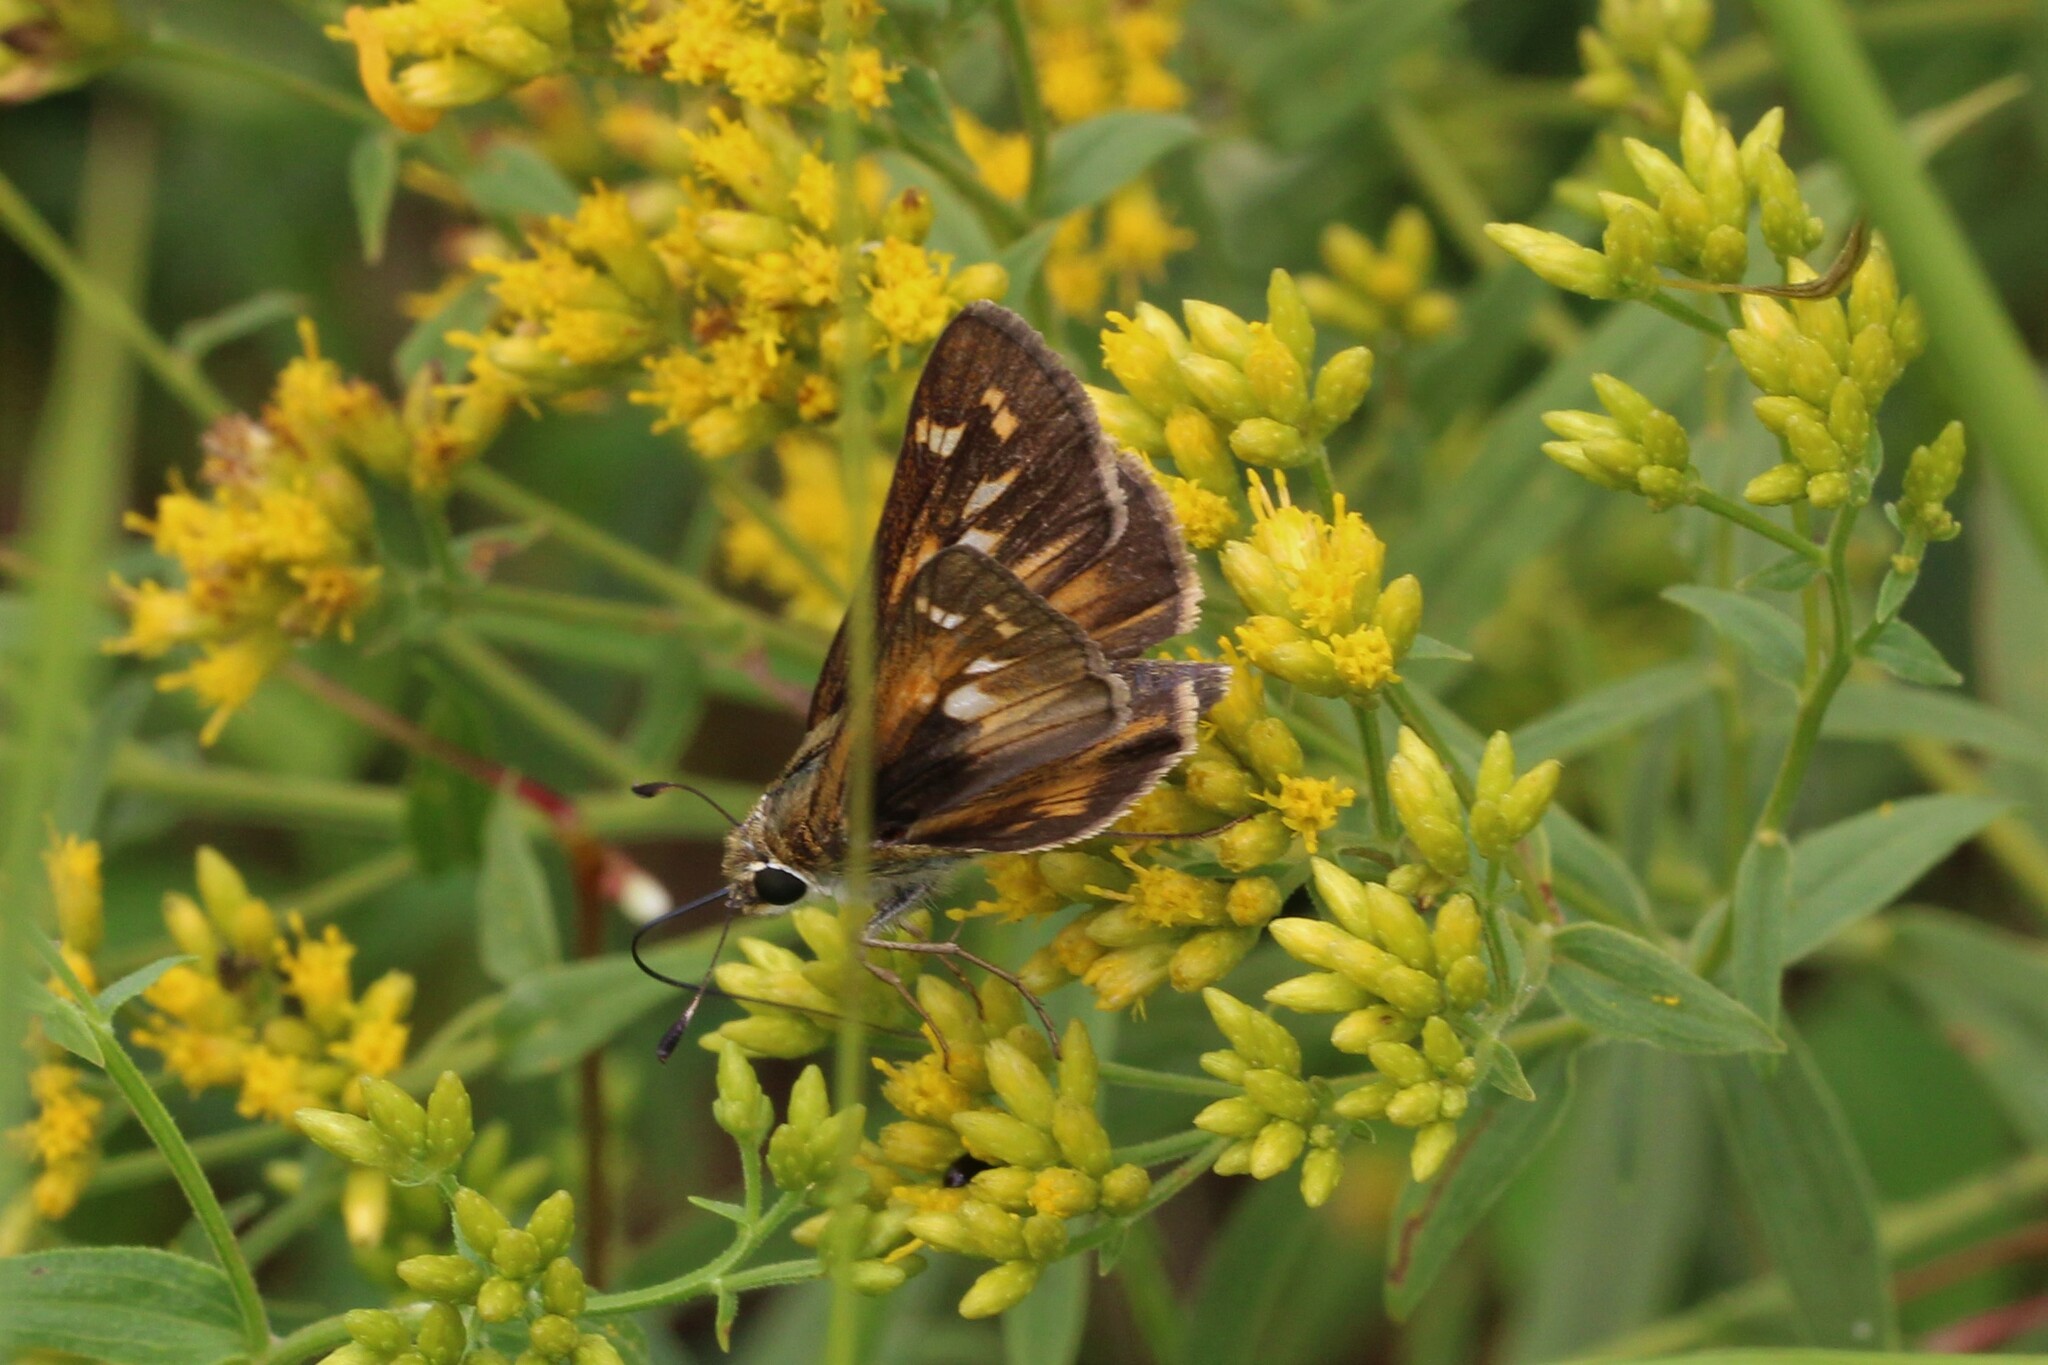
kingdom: Animalia
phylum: Arthropoda
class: Insecta
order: Lepidoptera
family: Hesperiidae
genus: Atalopedes
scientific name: Atalopedes
